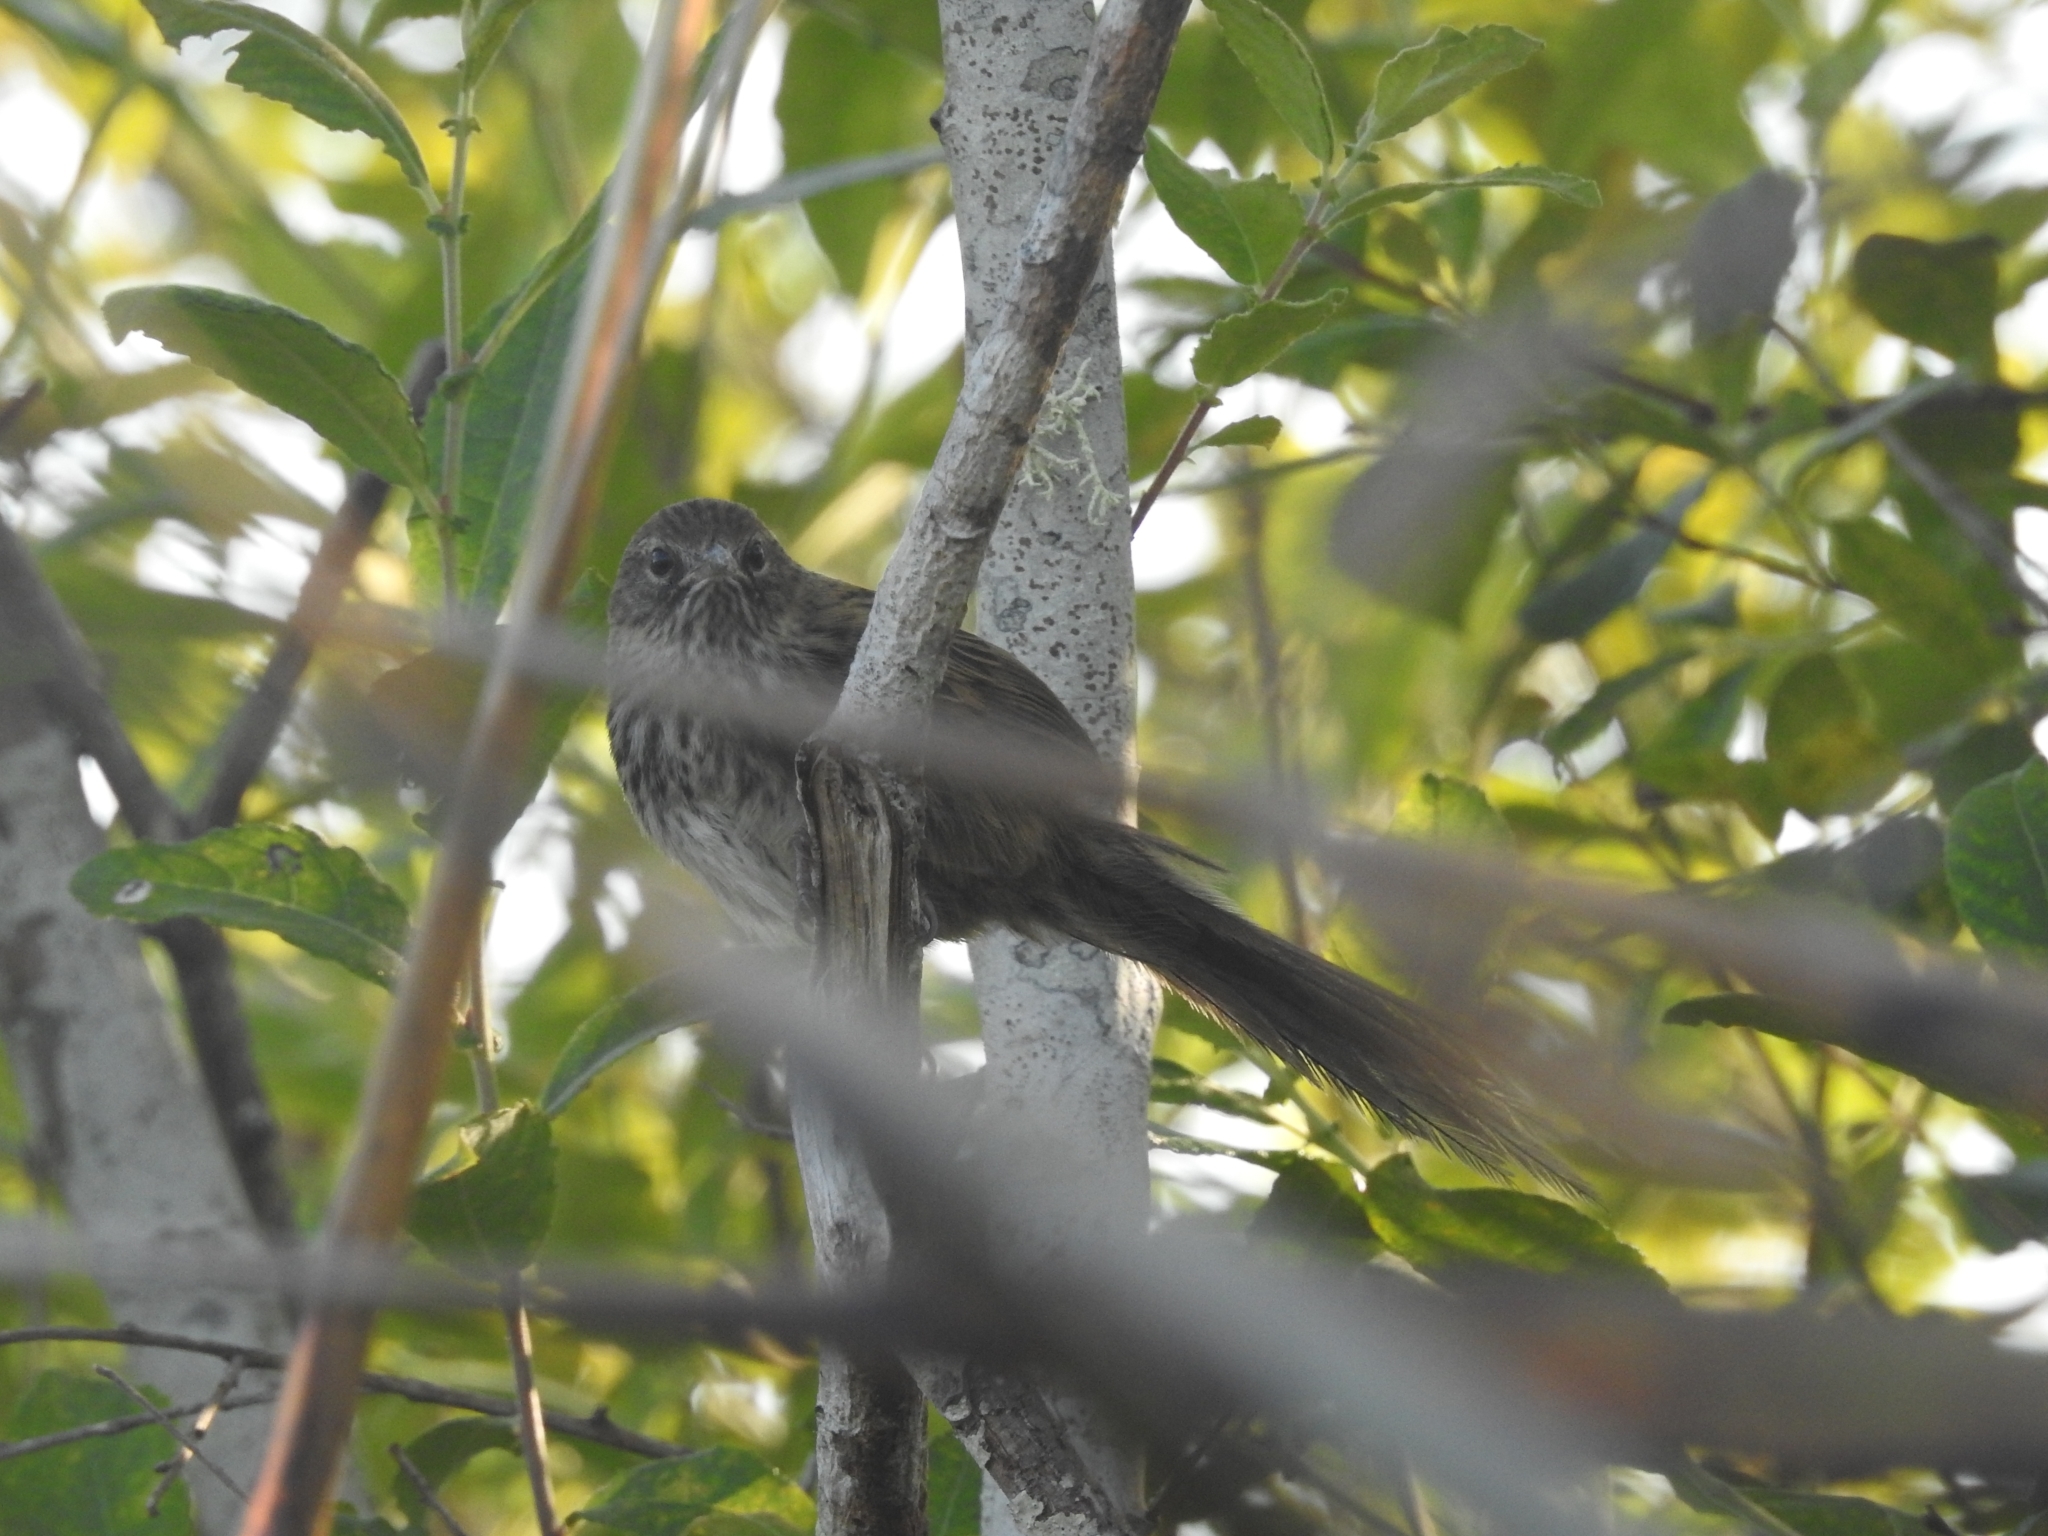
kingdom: Animalia
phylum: Chordata
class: Aves
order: Passeriformes
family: Locustellidae
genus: Megalurus
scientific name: Megalurus punctatus
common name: New zealand fernbird
